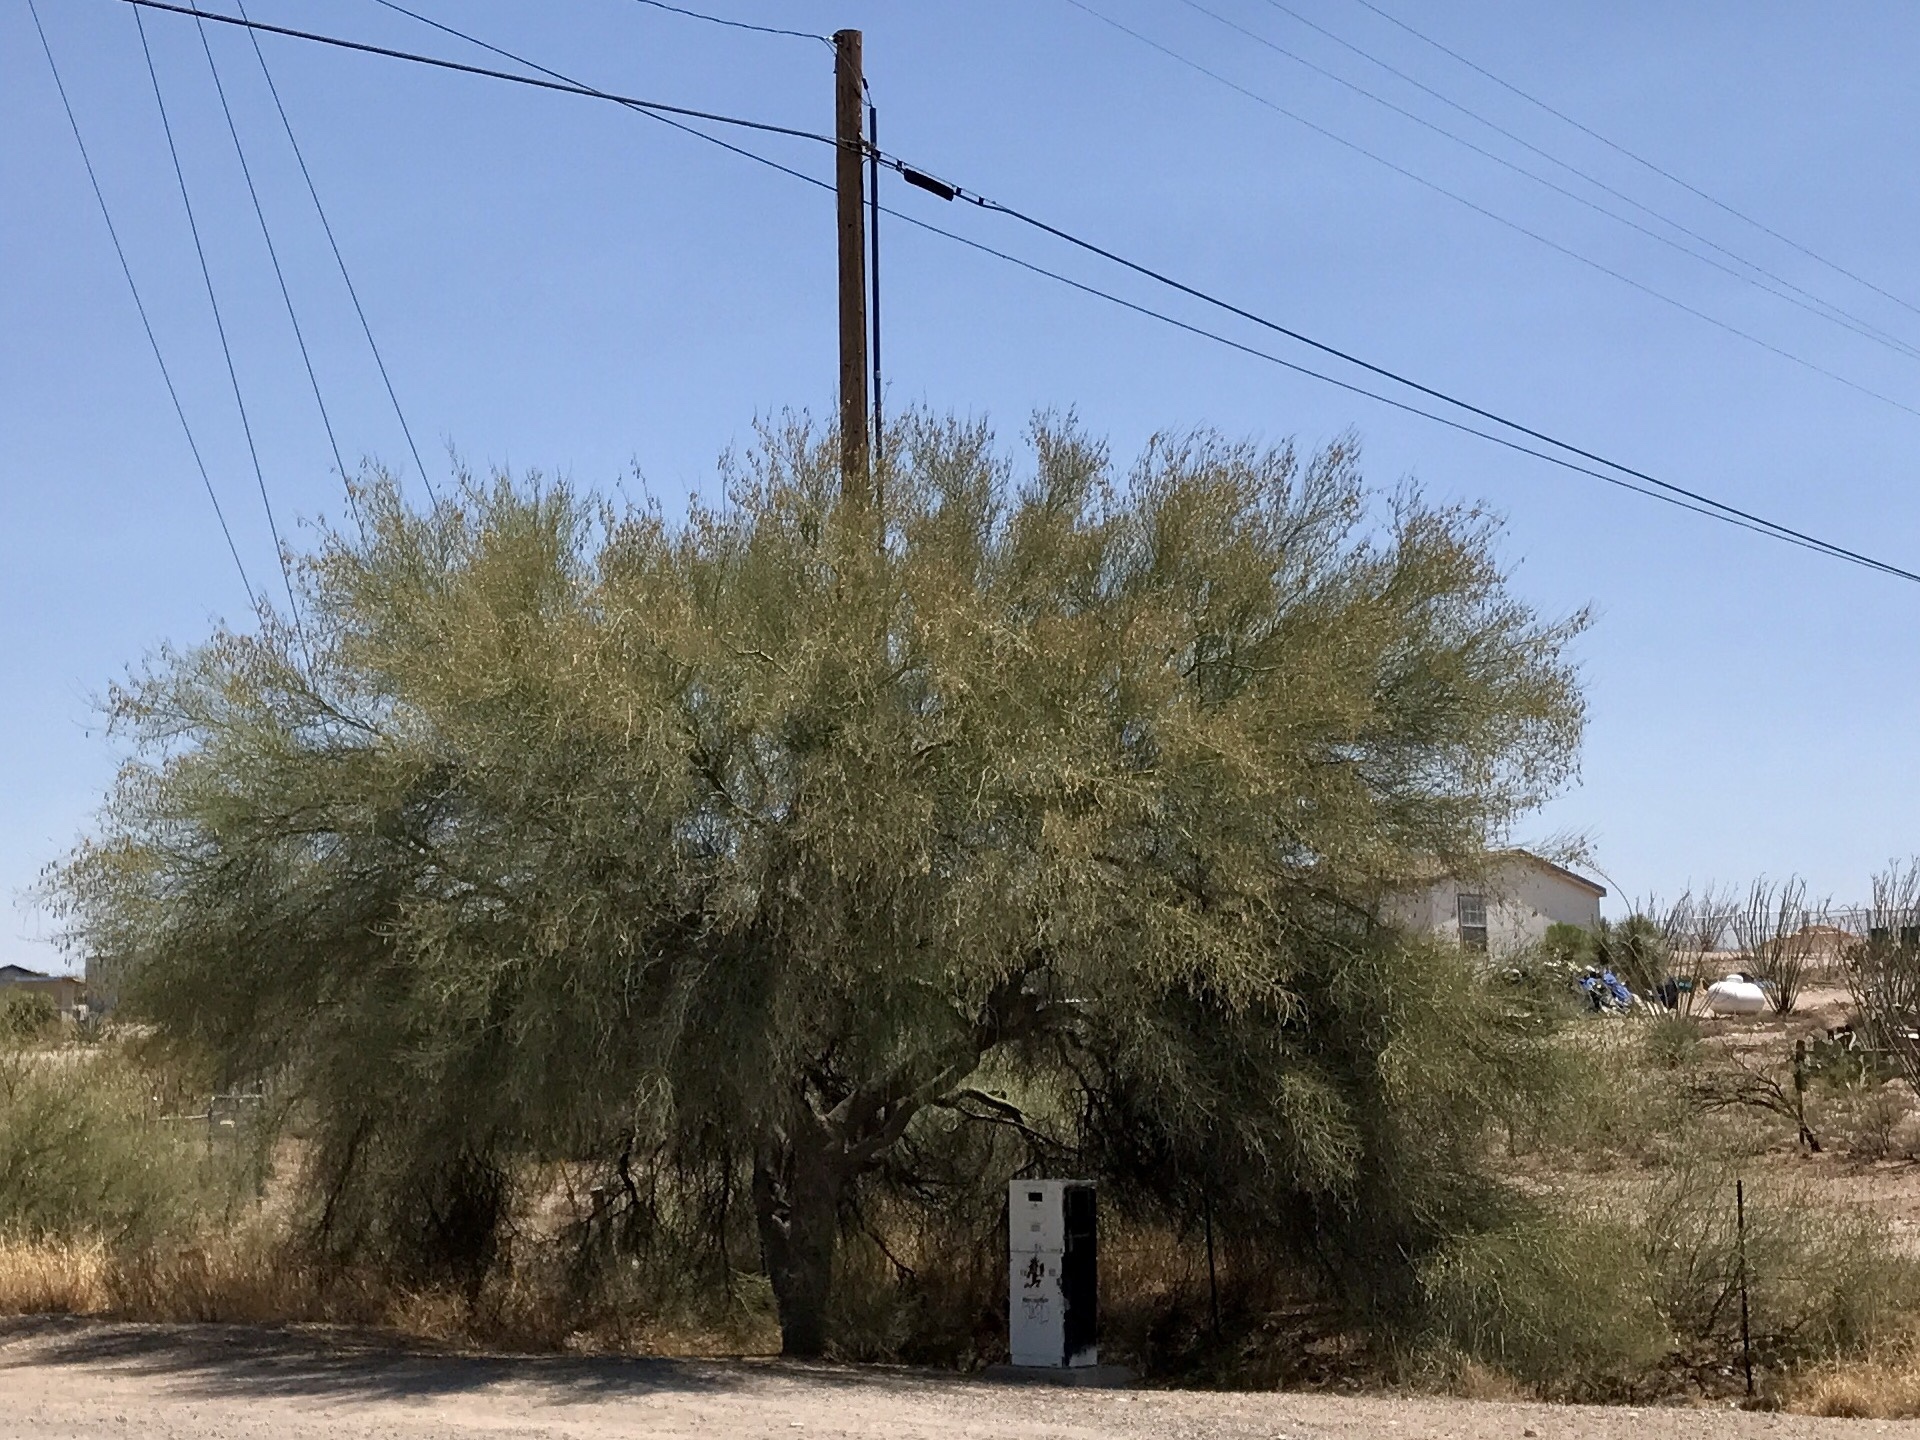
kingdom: Plantae
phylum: Tracheophyta
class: Magnoliopsida
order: Fabales
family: Fabaceae
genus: Parkinsonia
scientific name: Parkinsonia florida
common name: Blue paloverde
